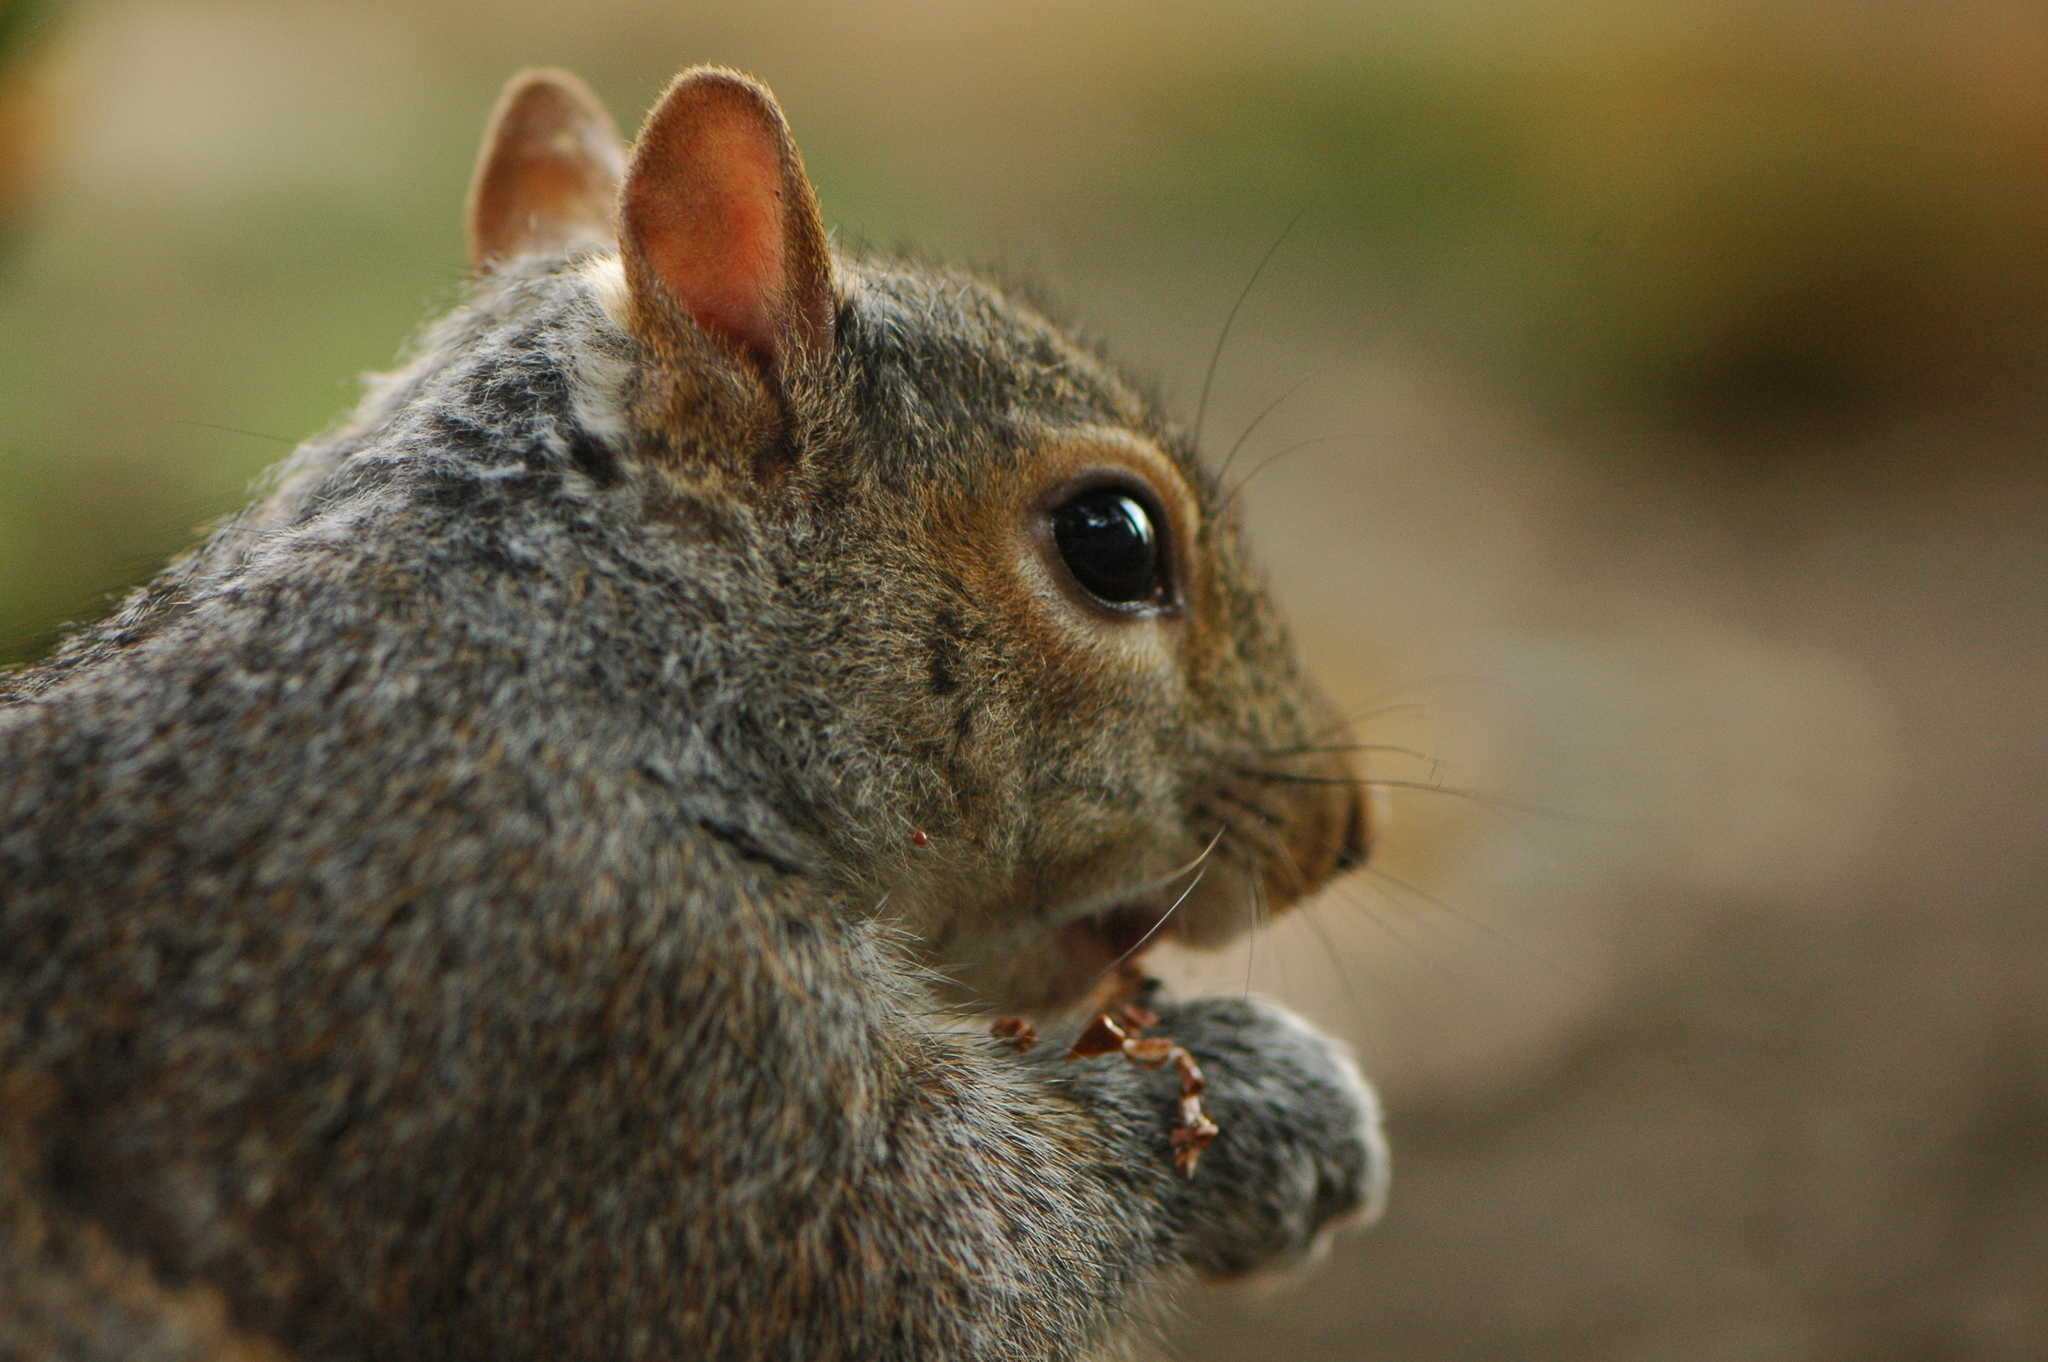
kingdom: Animalia
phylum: Chordata
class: Mammalia
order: Rodentia
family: Sciuridae
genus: Sciurus
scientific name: Sciurus carolinensis
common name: Eastern gray squirrel
